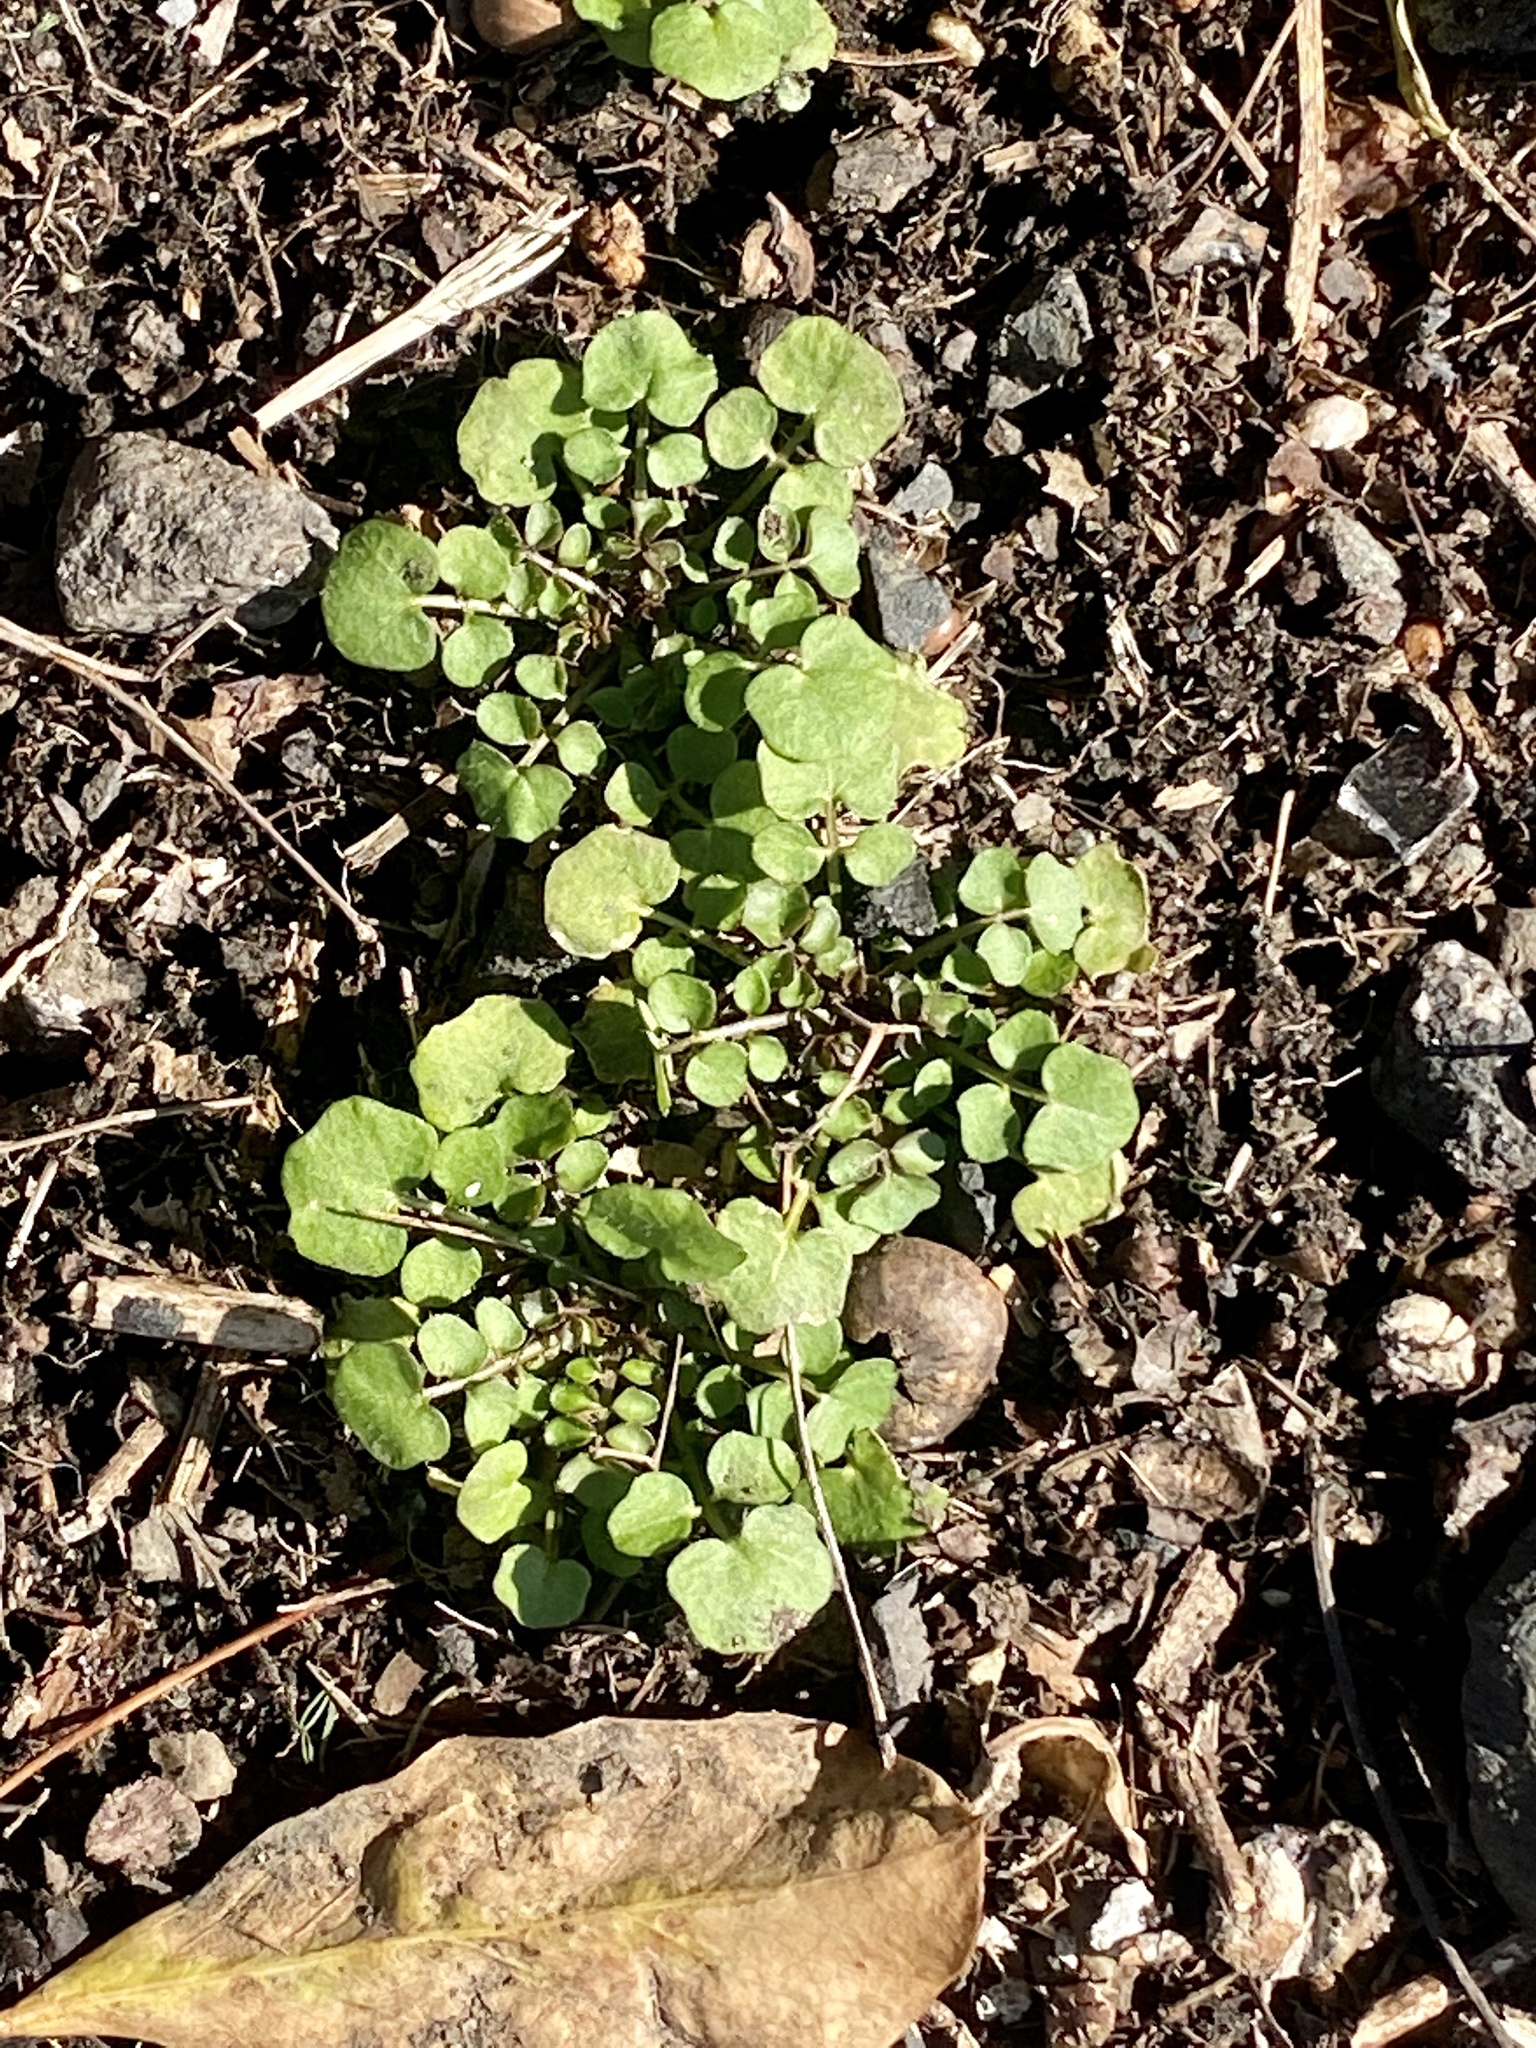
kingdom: Plantae
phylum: Tracheophyta
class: Magnoliopsida
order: Brassicales
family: Brassicaceae
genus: Cardamine
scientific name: Cardamine hirsuta
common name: Hairy bittercress
